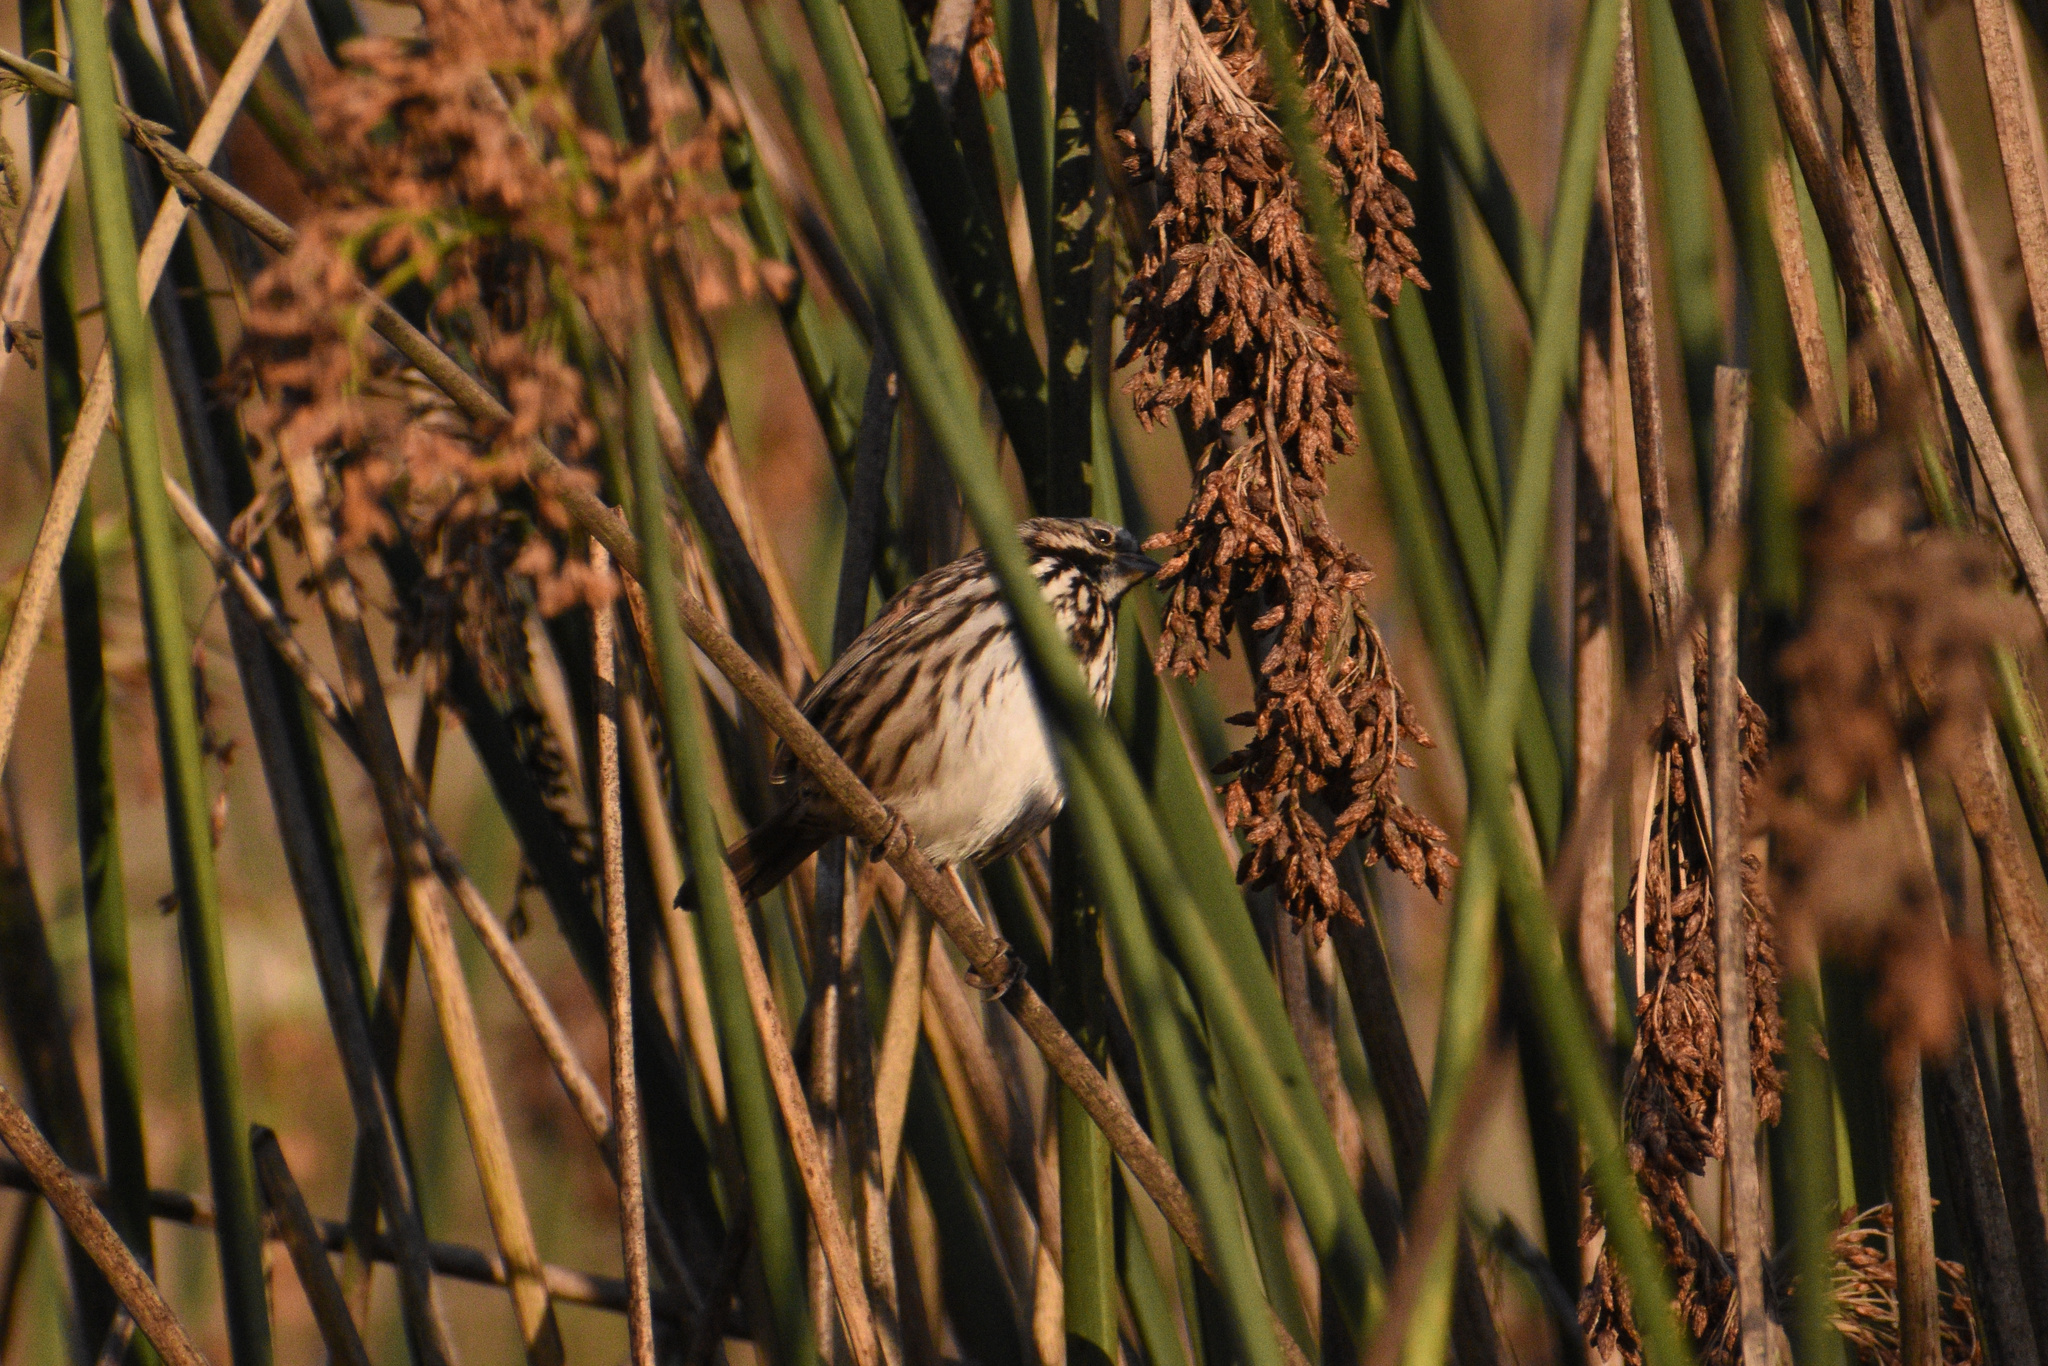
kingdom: Animalia
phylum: Chordata
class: Aves
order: Passeriformes
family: Passerellidae
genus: Melospiza
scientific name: Melospiza melodia
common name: Song sparrow
